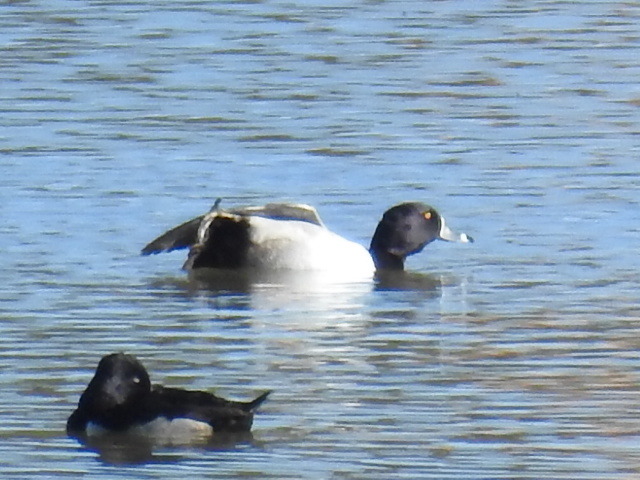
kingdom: Animalia
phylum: Chordata
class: Aves
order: Anseriformes
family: Anatidae
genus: Aythya
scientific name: Aythya collaris
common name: Ring-necked duck
